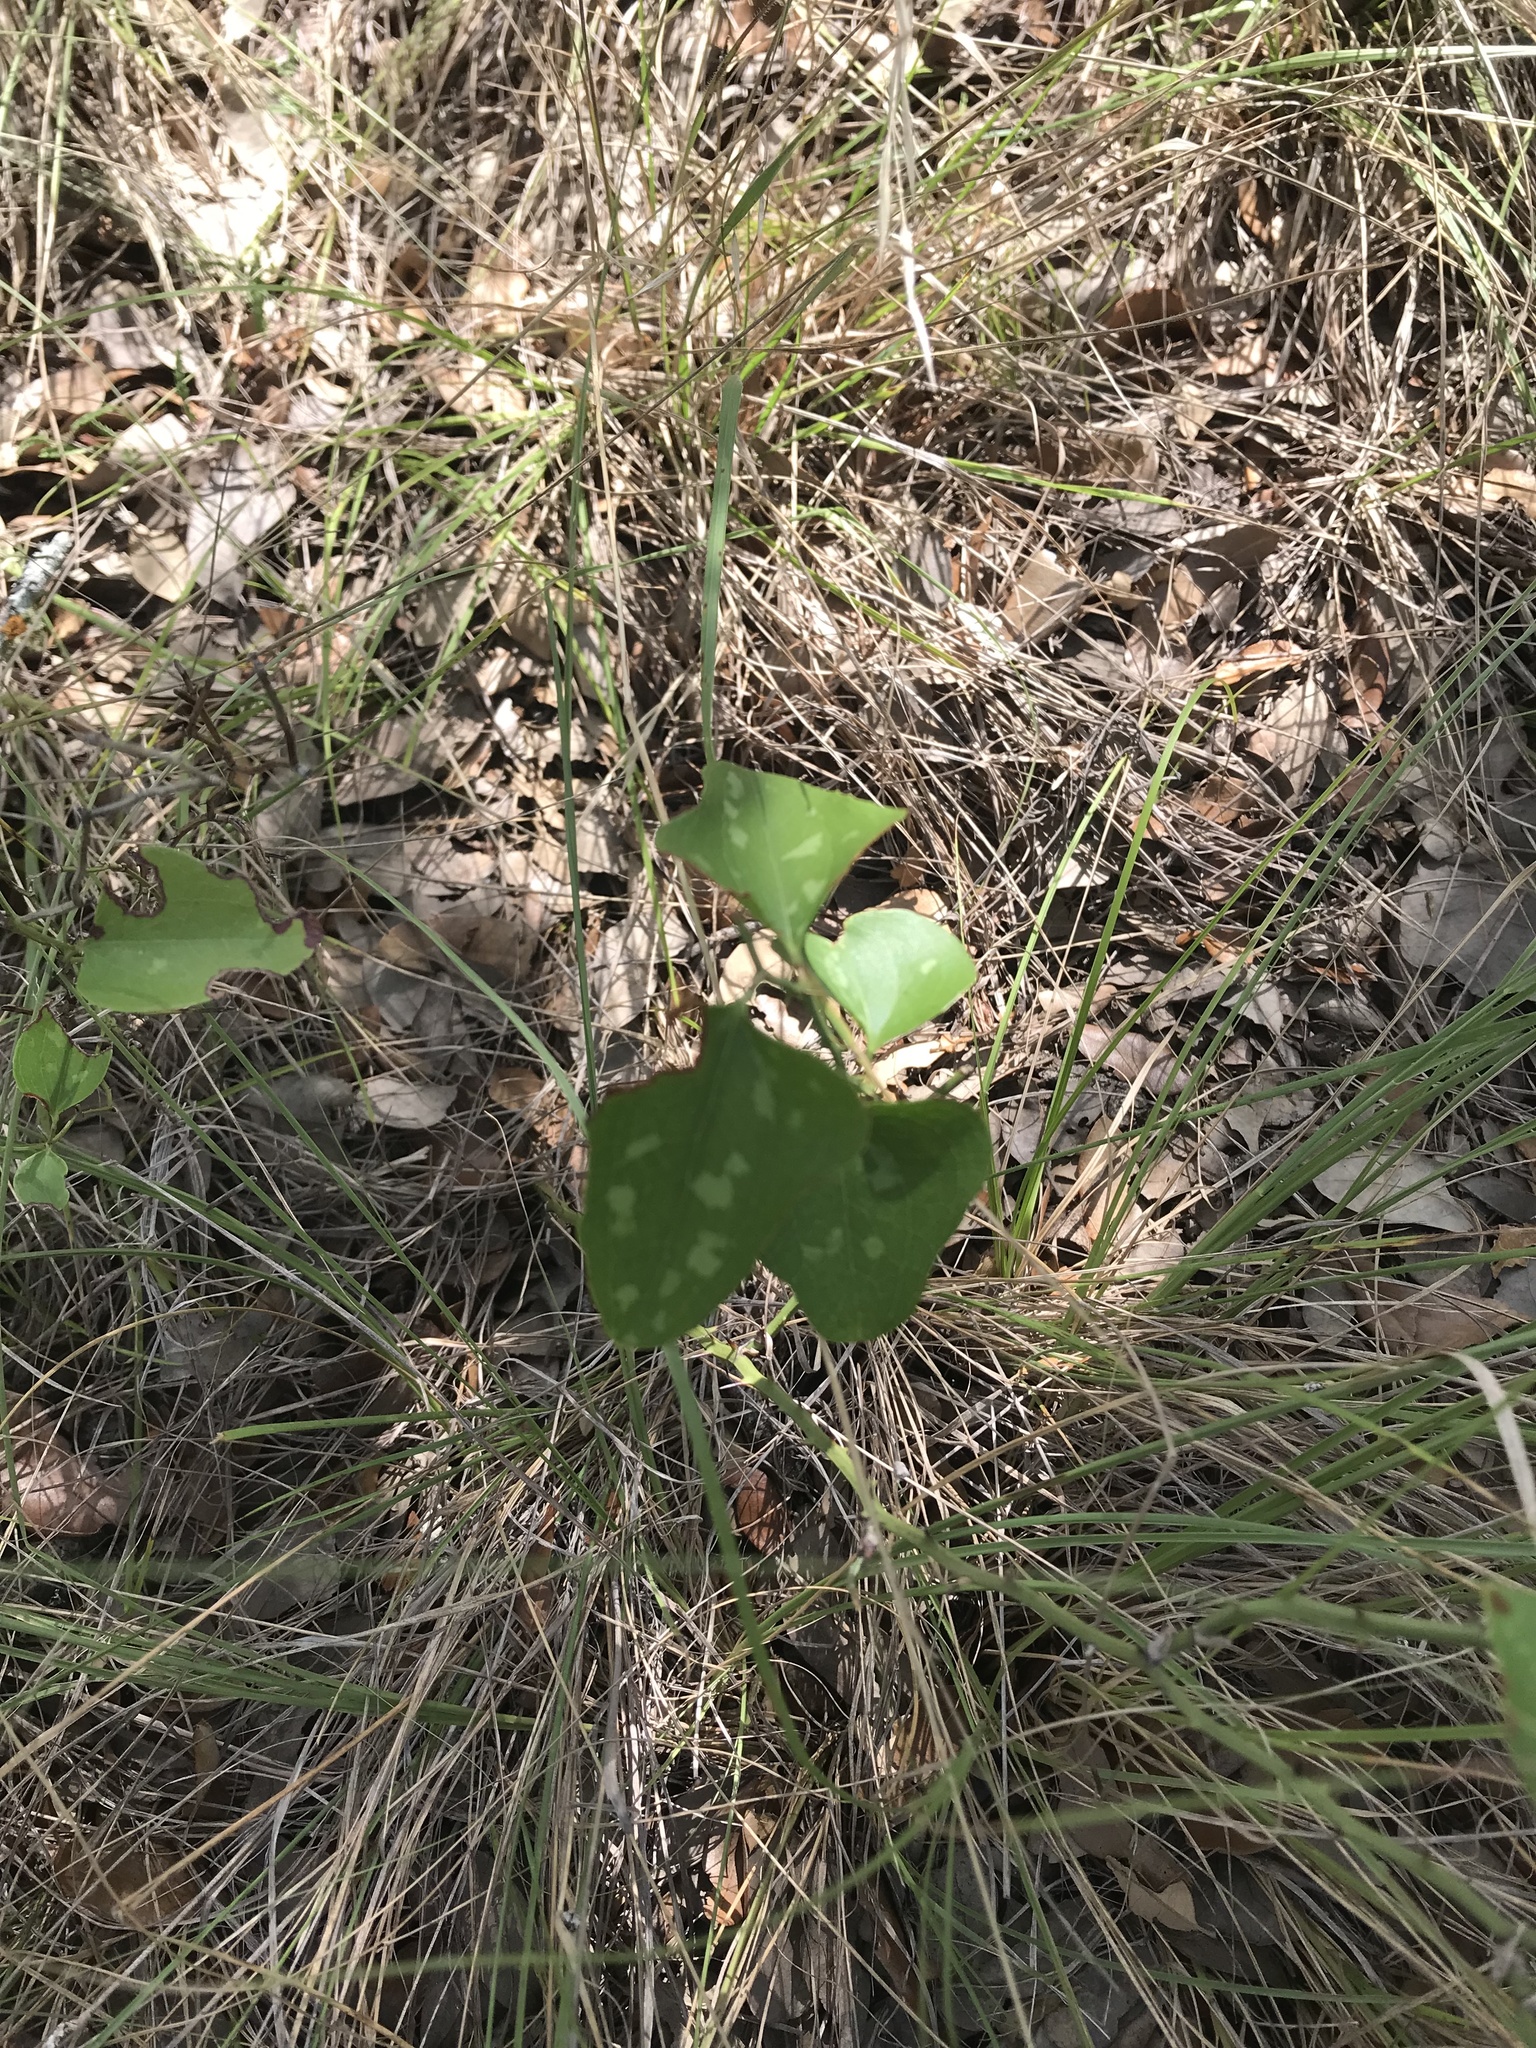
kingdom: Plantae
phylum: Tracheophyta
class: Liliopsida
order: Liliales
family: Smilacaceae
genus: Smilax
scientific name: Smilax bona-nox
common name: Catbrier
